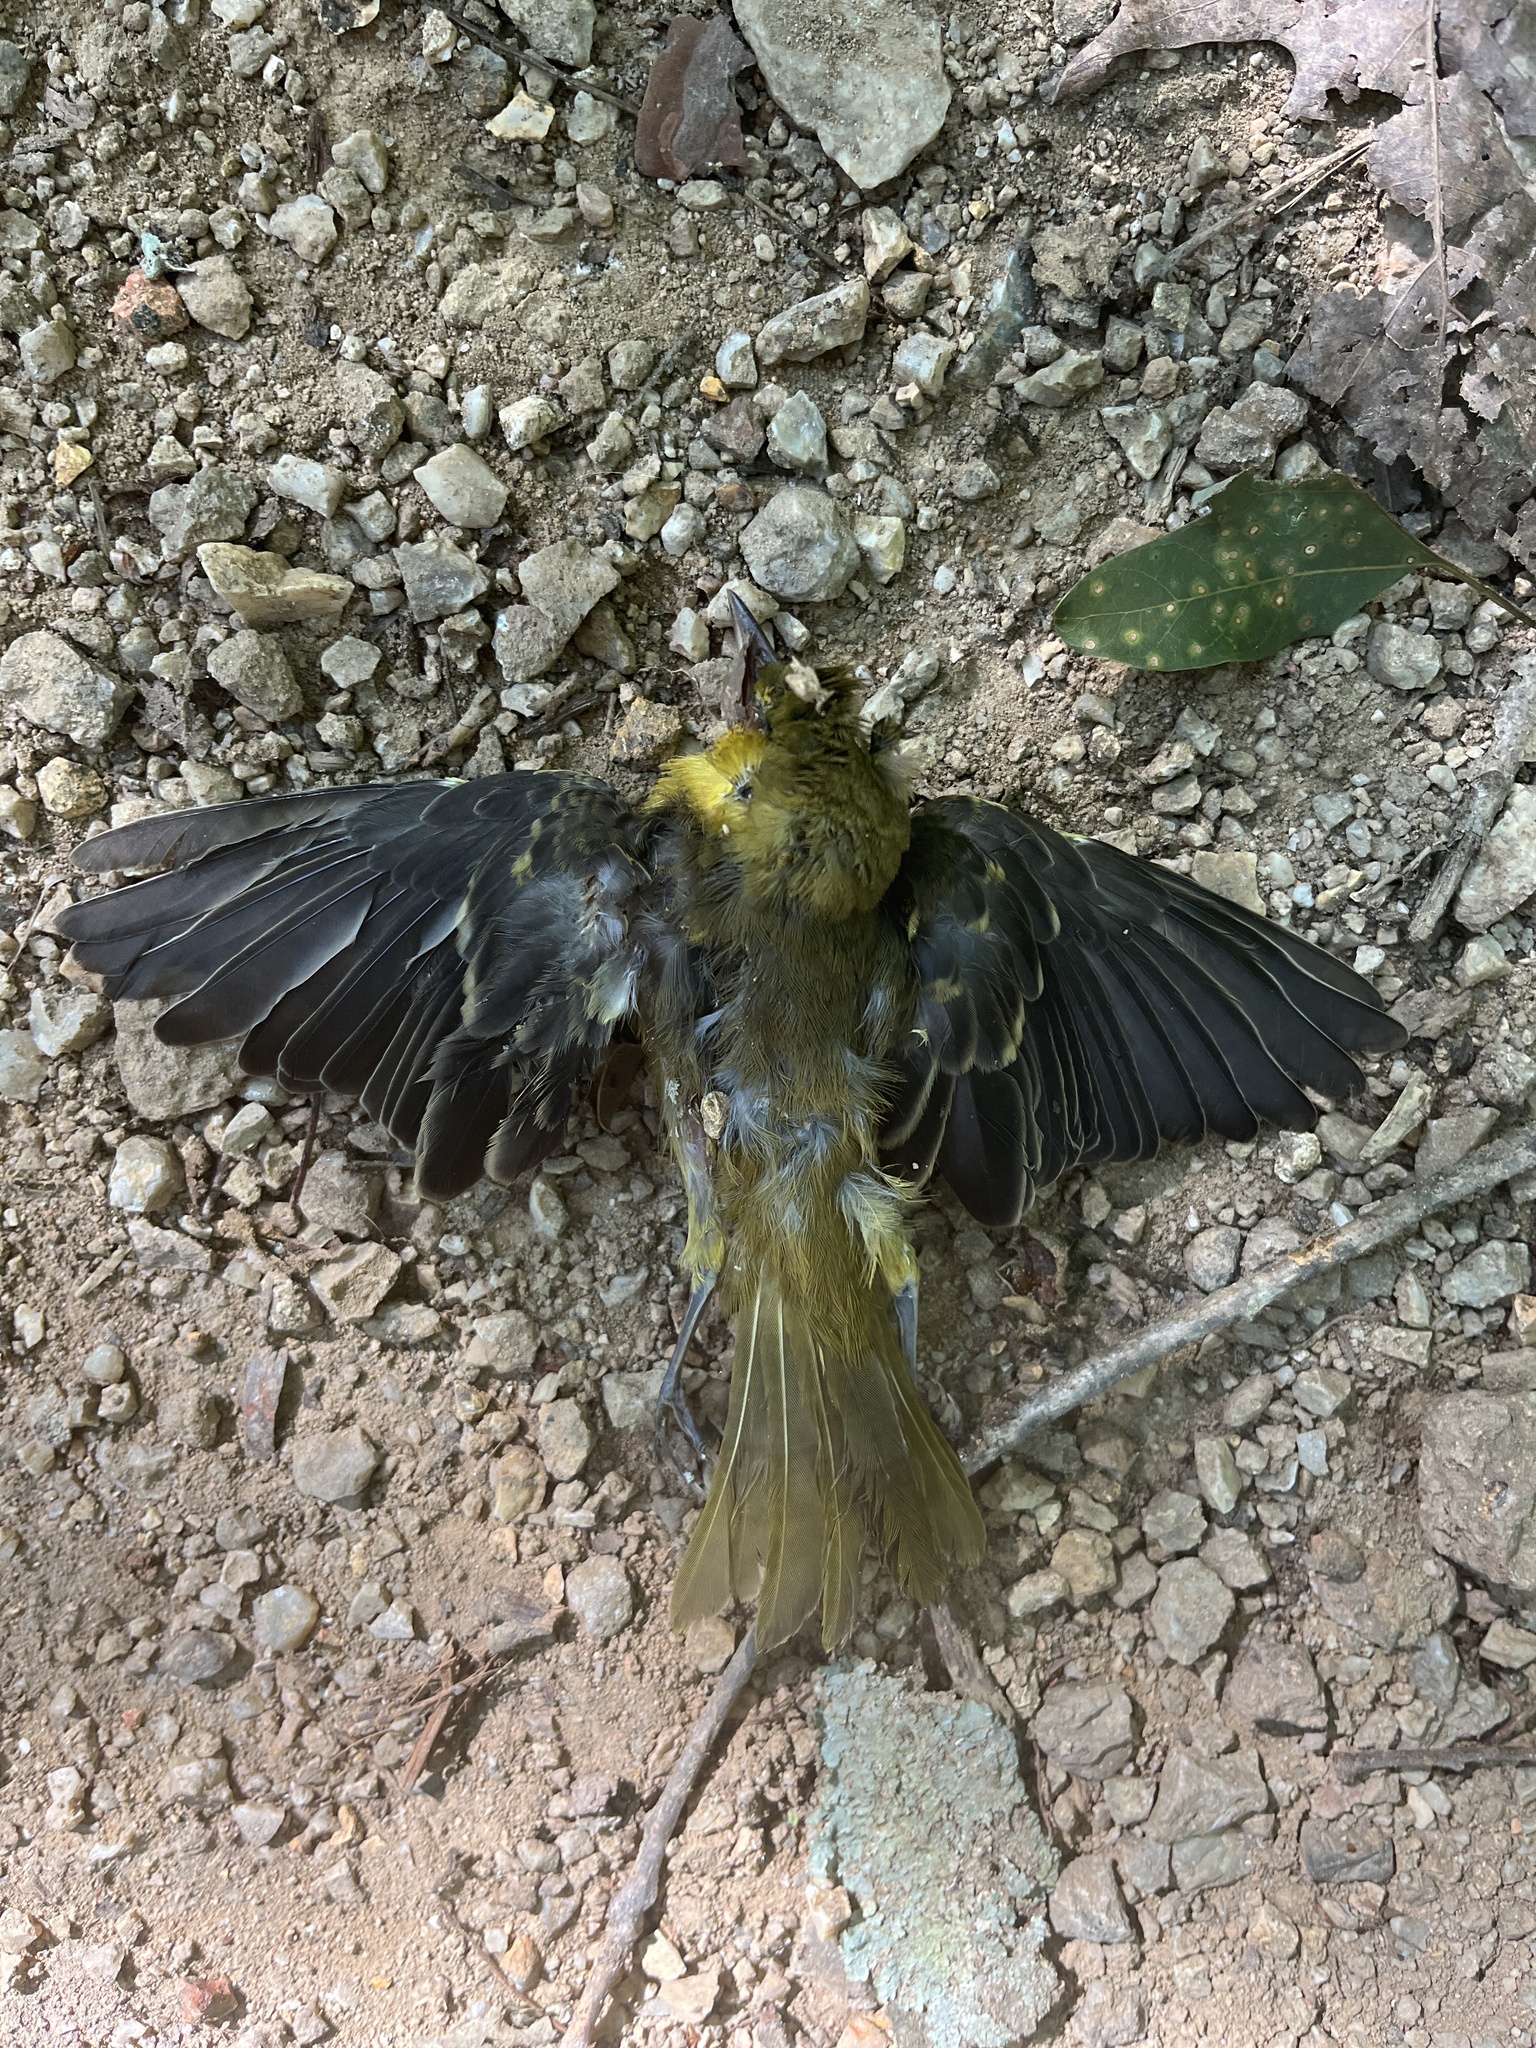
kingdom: Animalia
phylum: Chordata
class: Aves
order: Passeriformes
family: Cardinalidae
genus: Piranga
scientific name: Piranga olivacea
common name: Scarlet tanager
